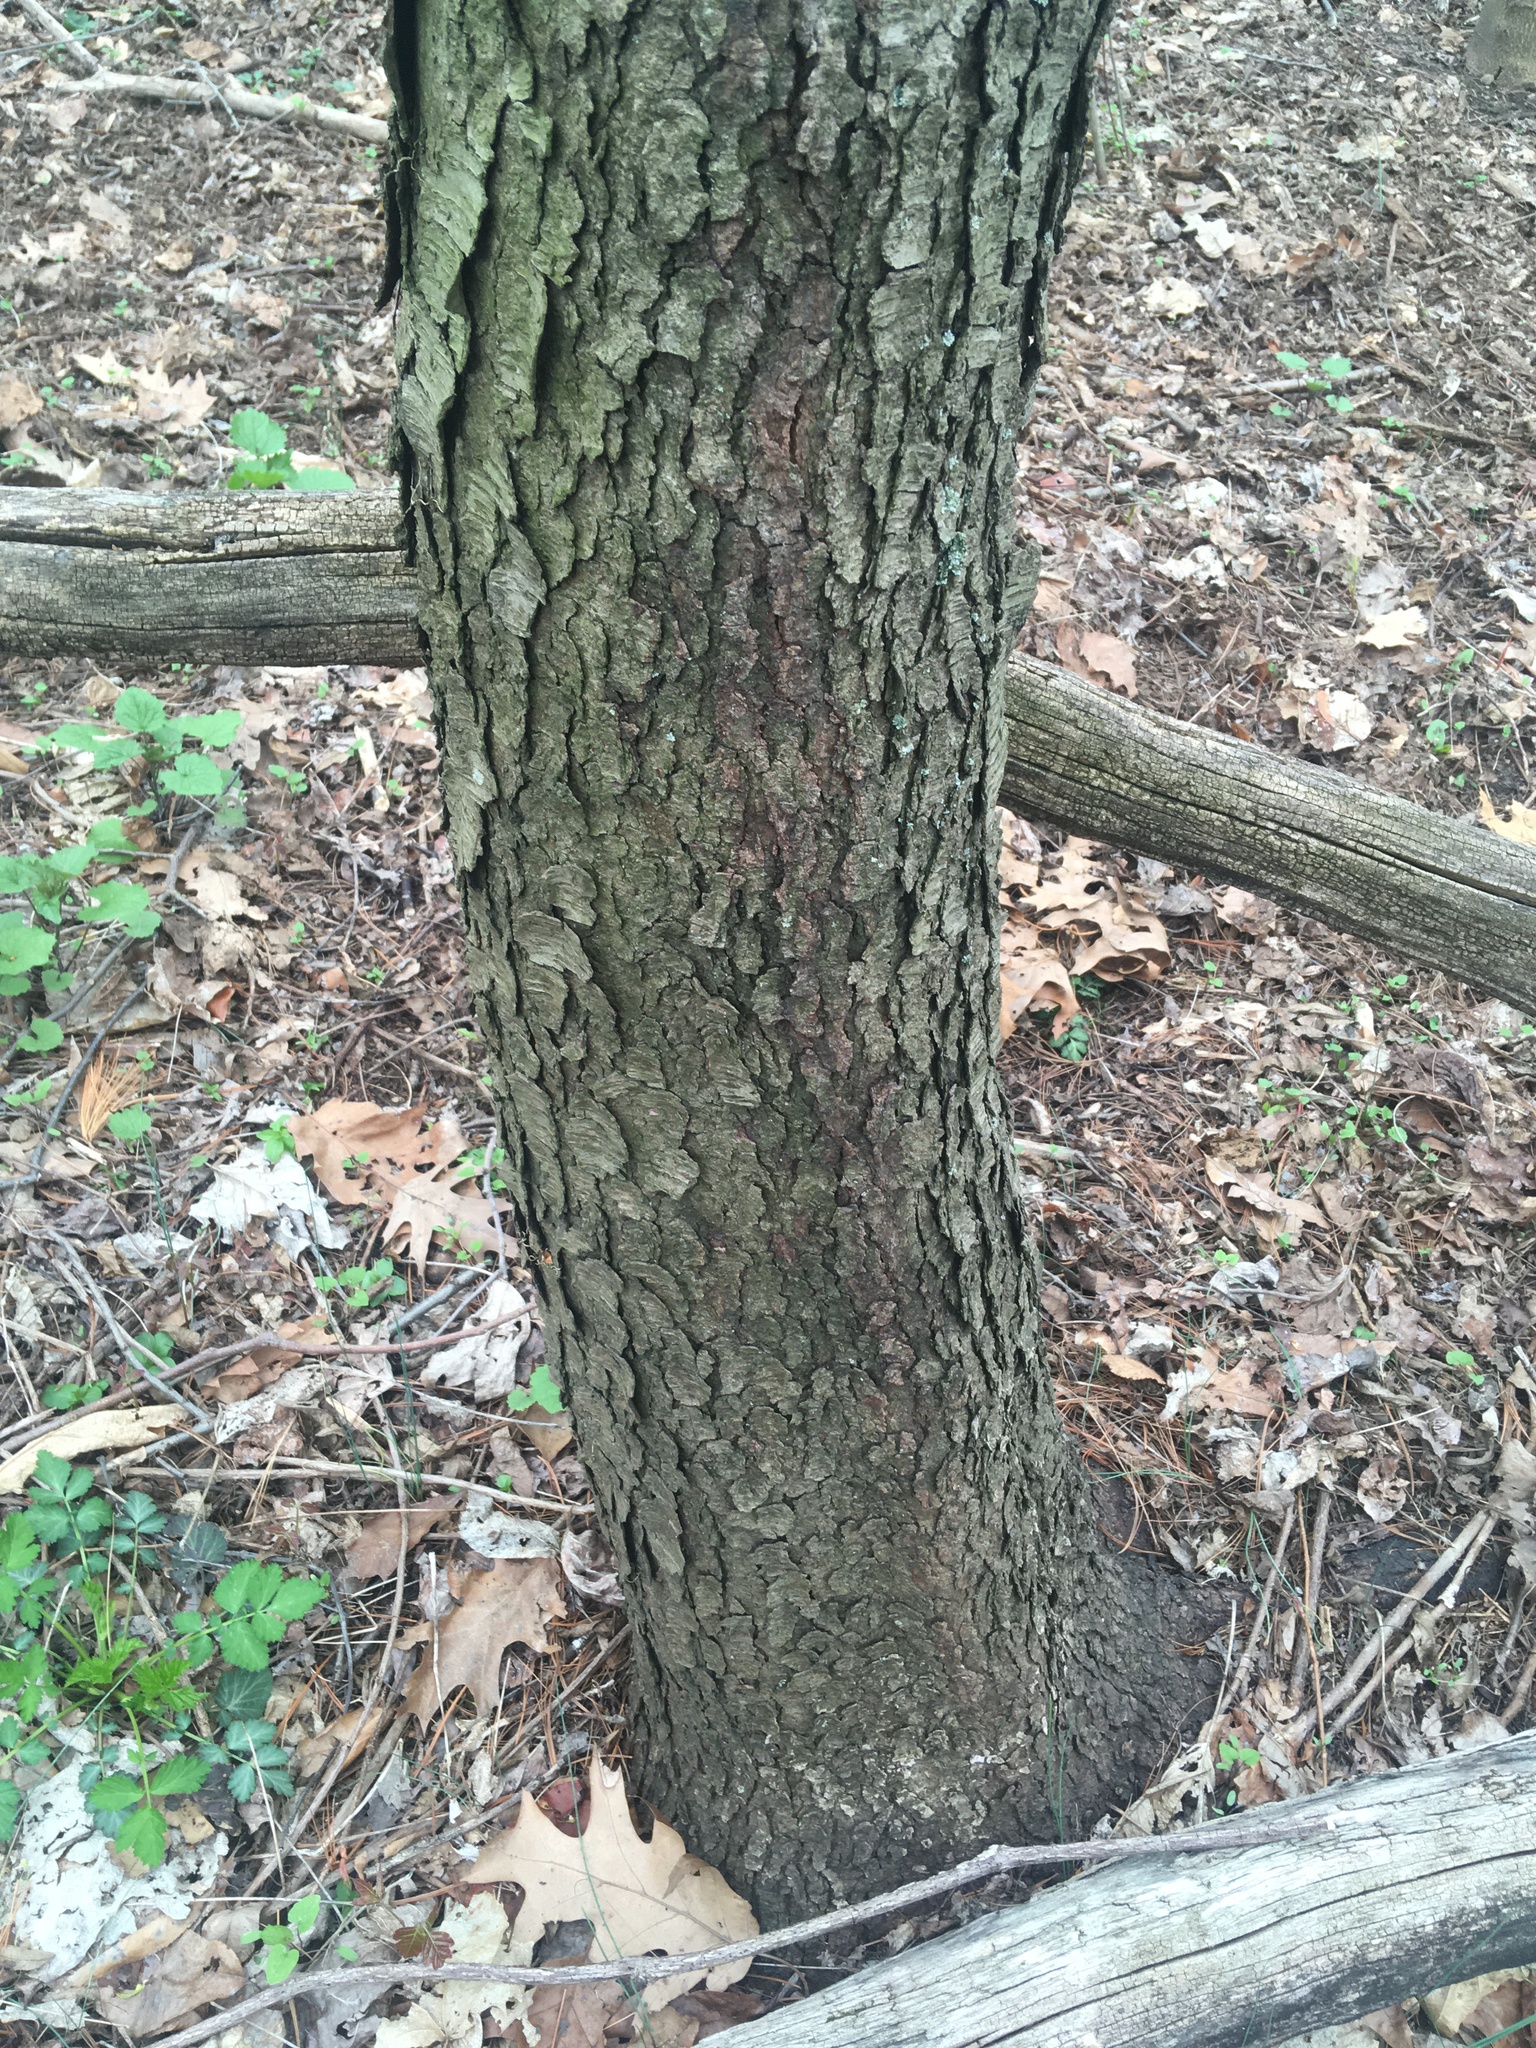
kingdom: Plantae
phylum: Tracheophyta
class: Magnoliopsida
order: Rosales
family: Rosaceae
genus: Prunus
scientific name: Prunus serotina
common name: Black cherry
